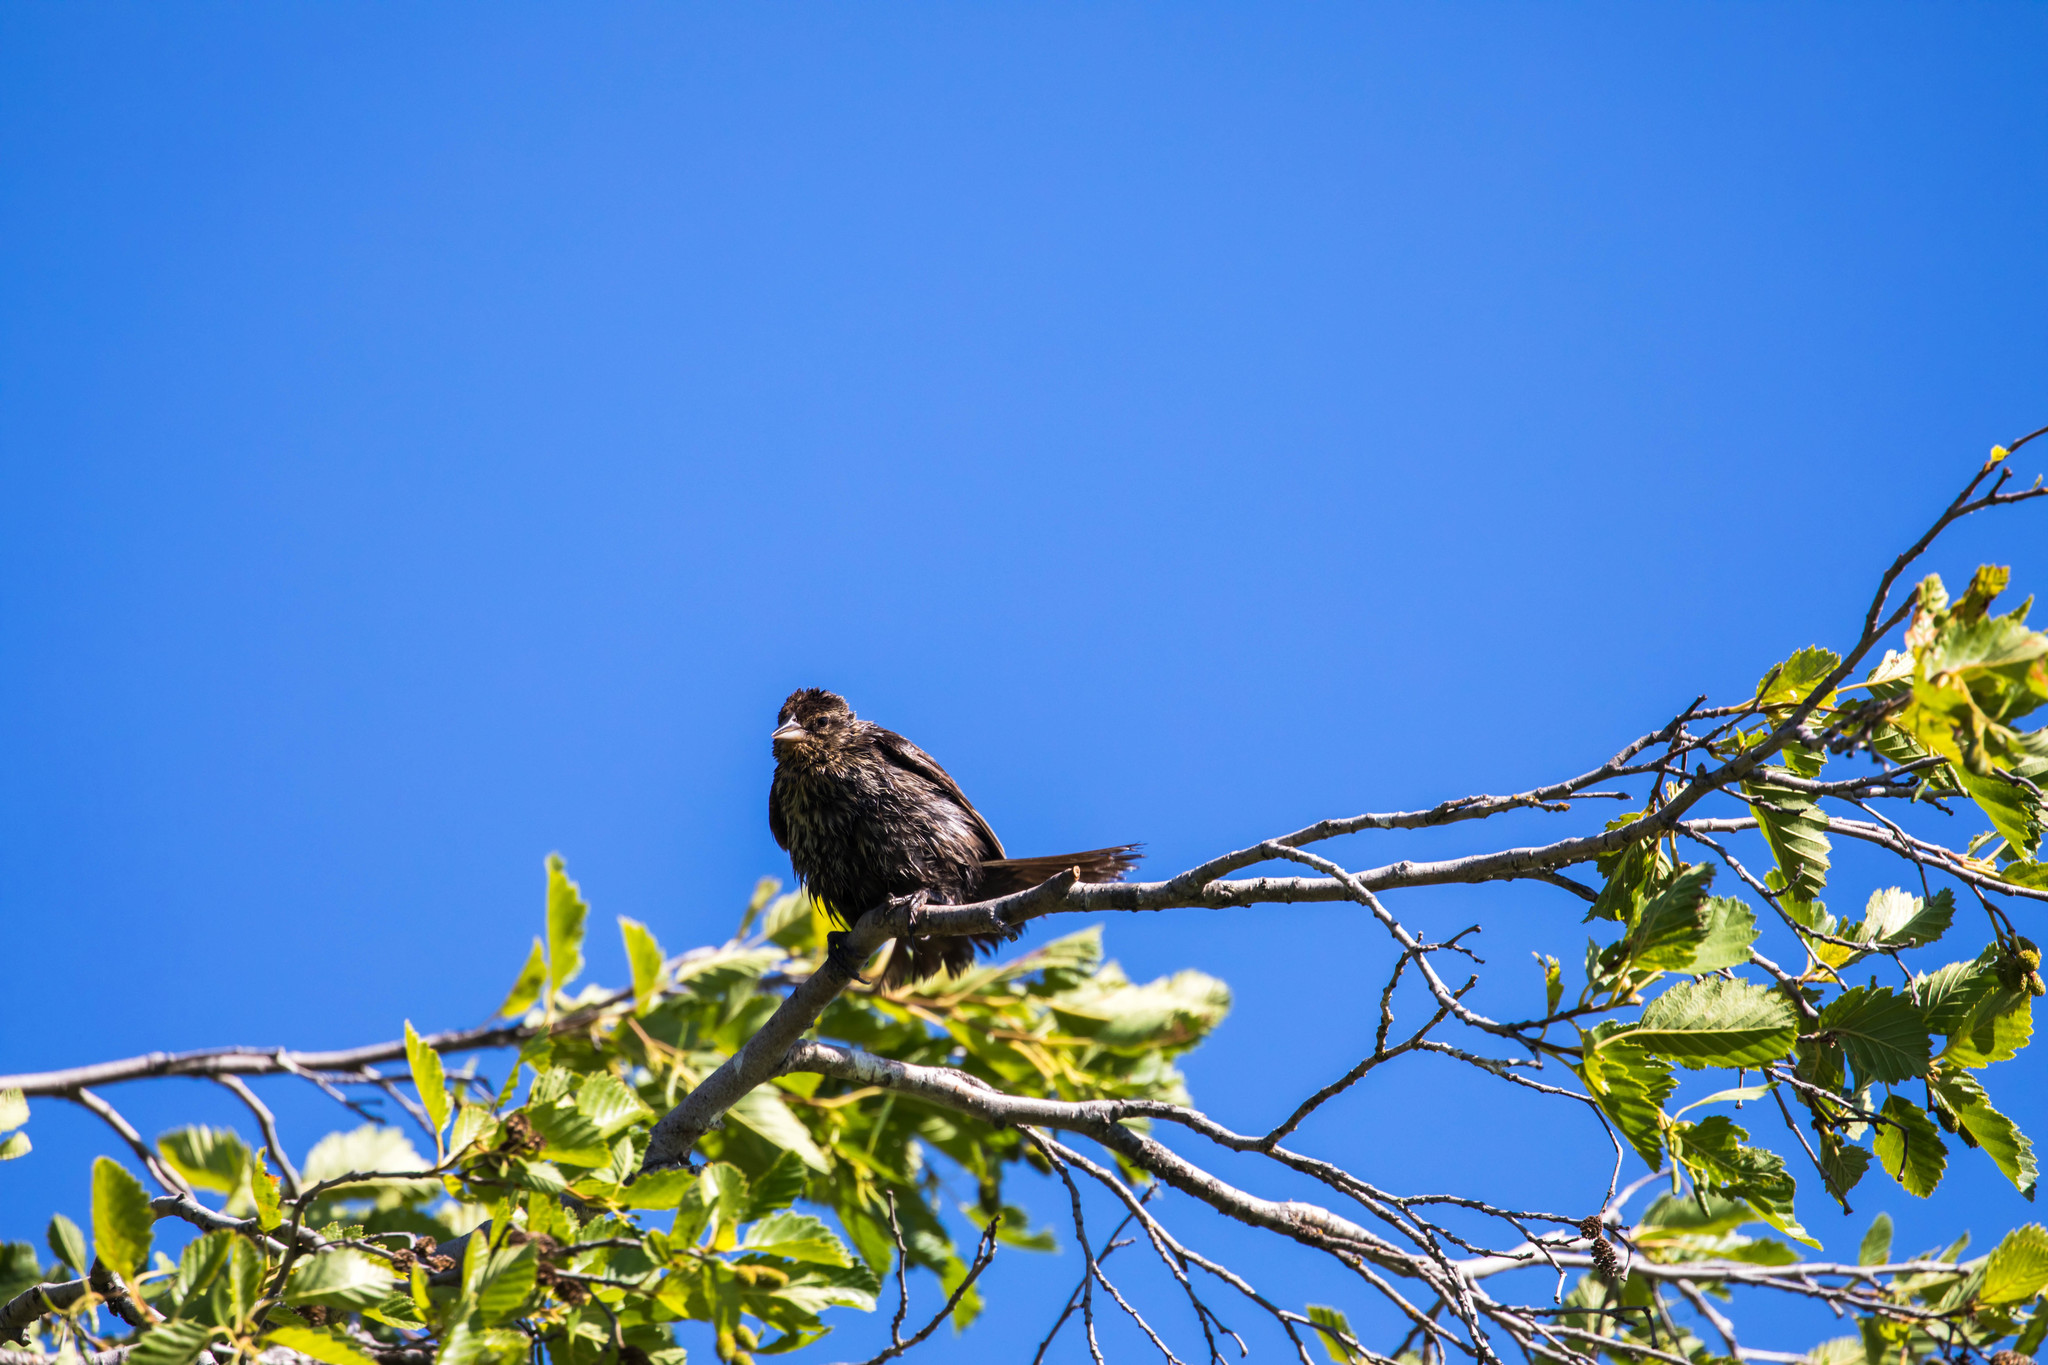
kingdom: Animalia
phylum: Chordata
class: Aves
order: Passeriformes
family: Icteridae
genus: Agelaius
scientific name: Agelaius phoeniceus
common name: Red-winged blackbird
